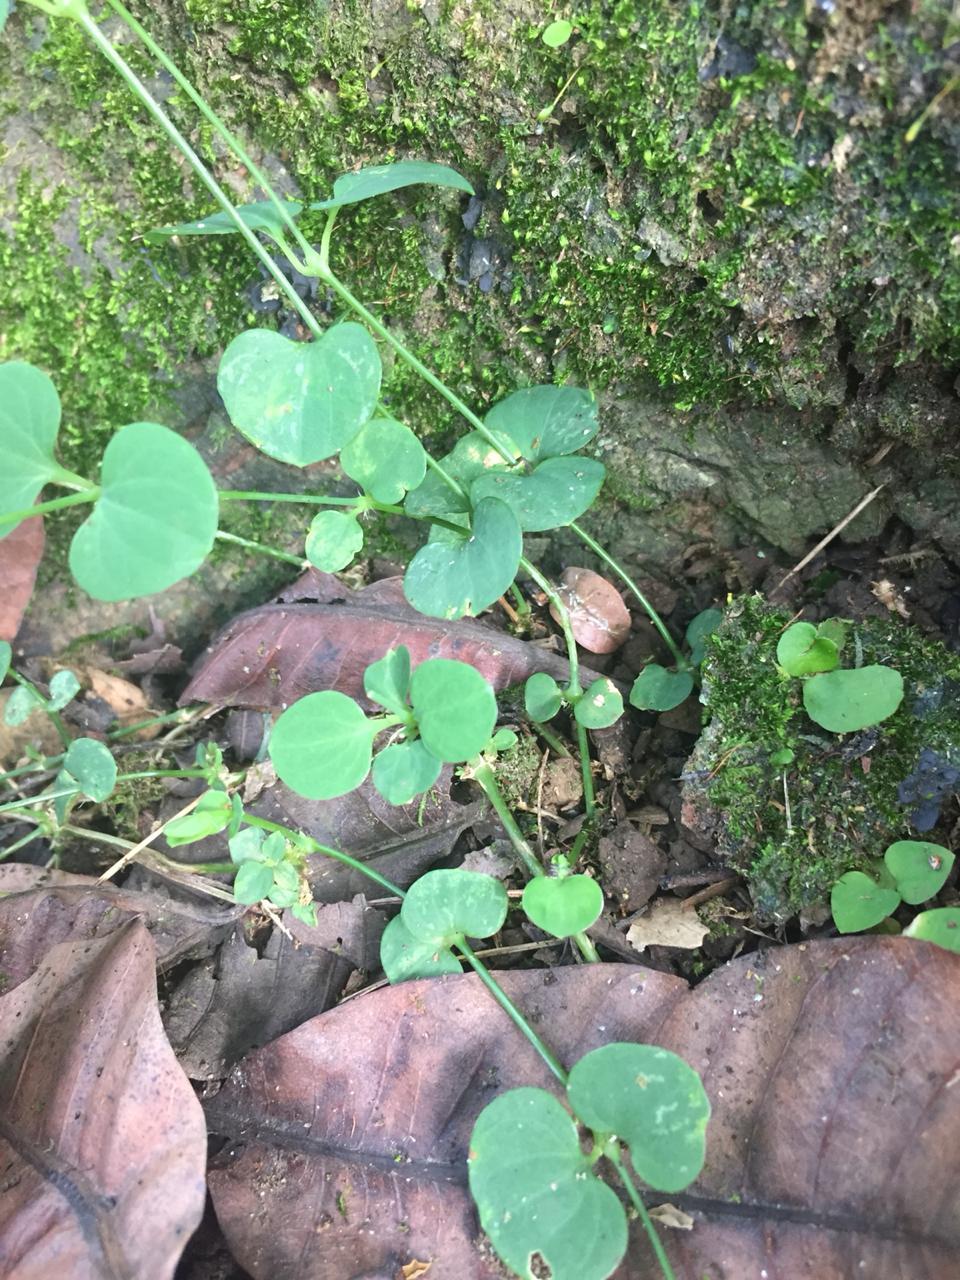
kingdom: Plantae
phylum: Tracheophyta
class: Magnoliopsida
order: Caryophyllales
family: Caryophyllaceae
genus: Drymaria
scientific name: Drymaria cordata
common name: Whitesnow
